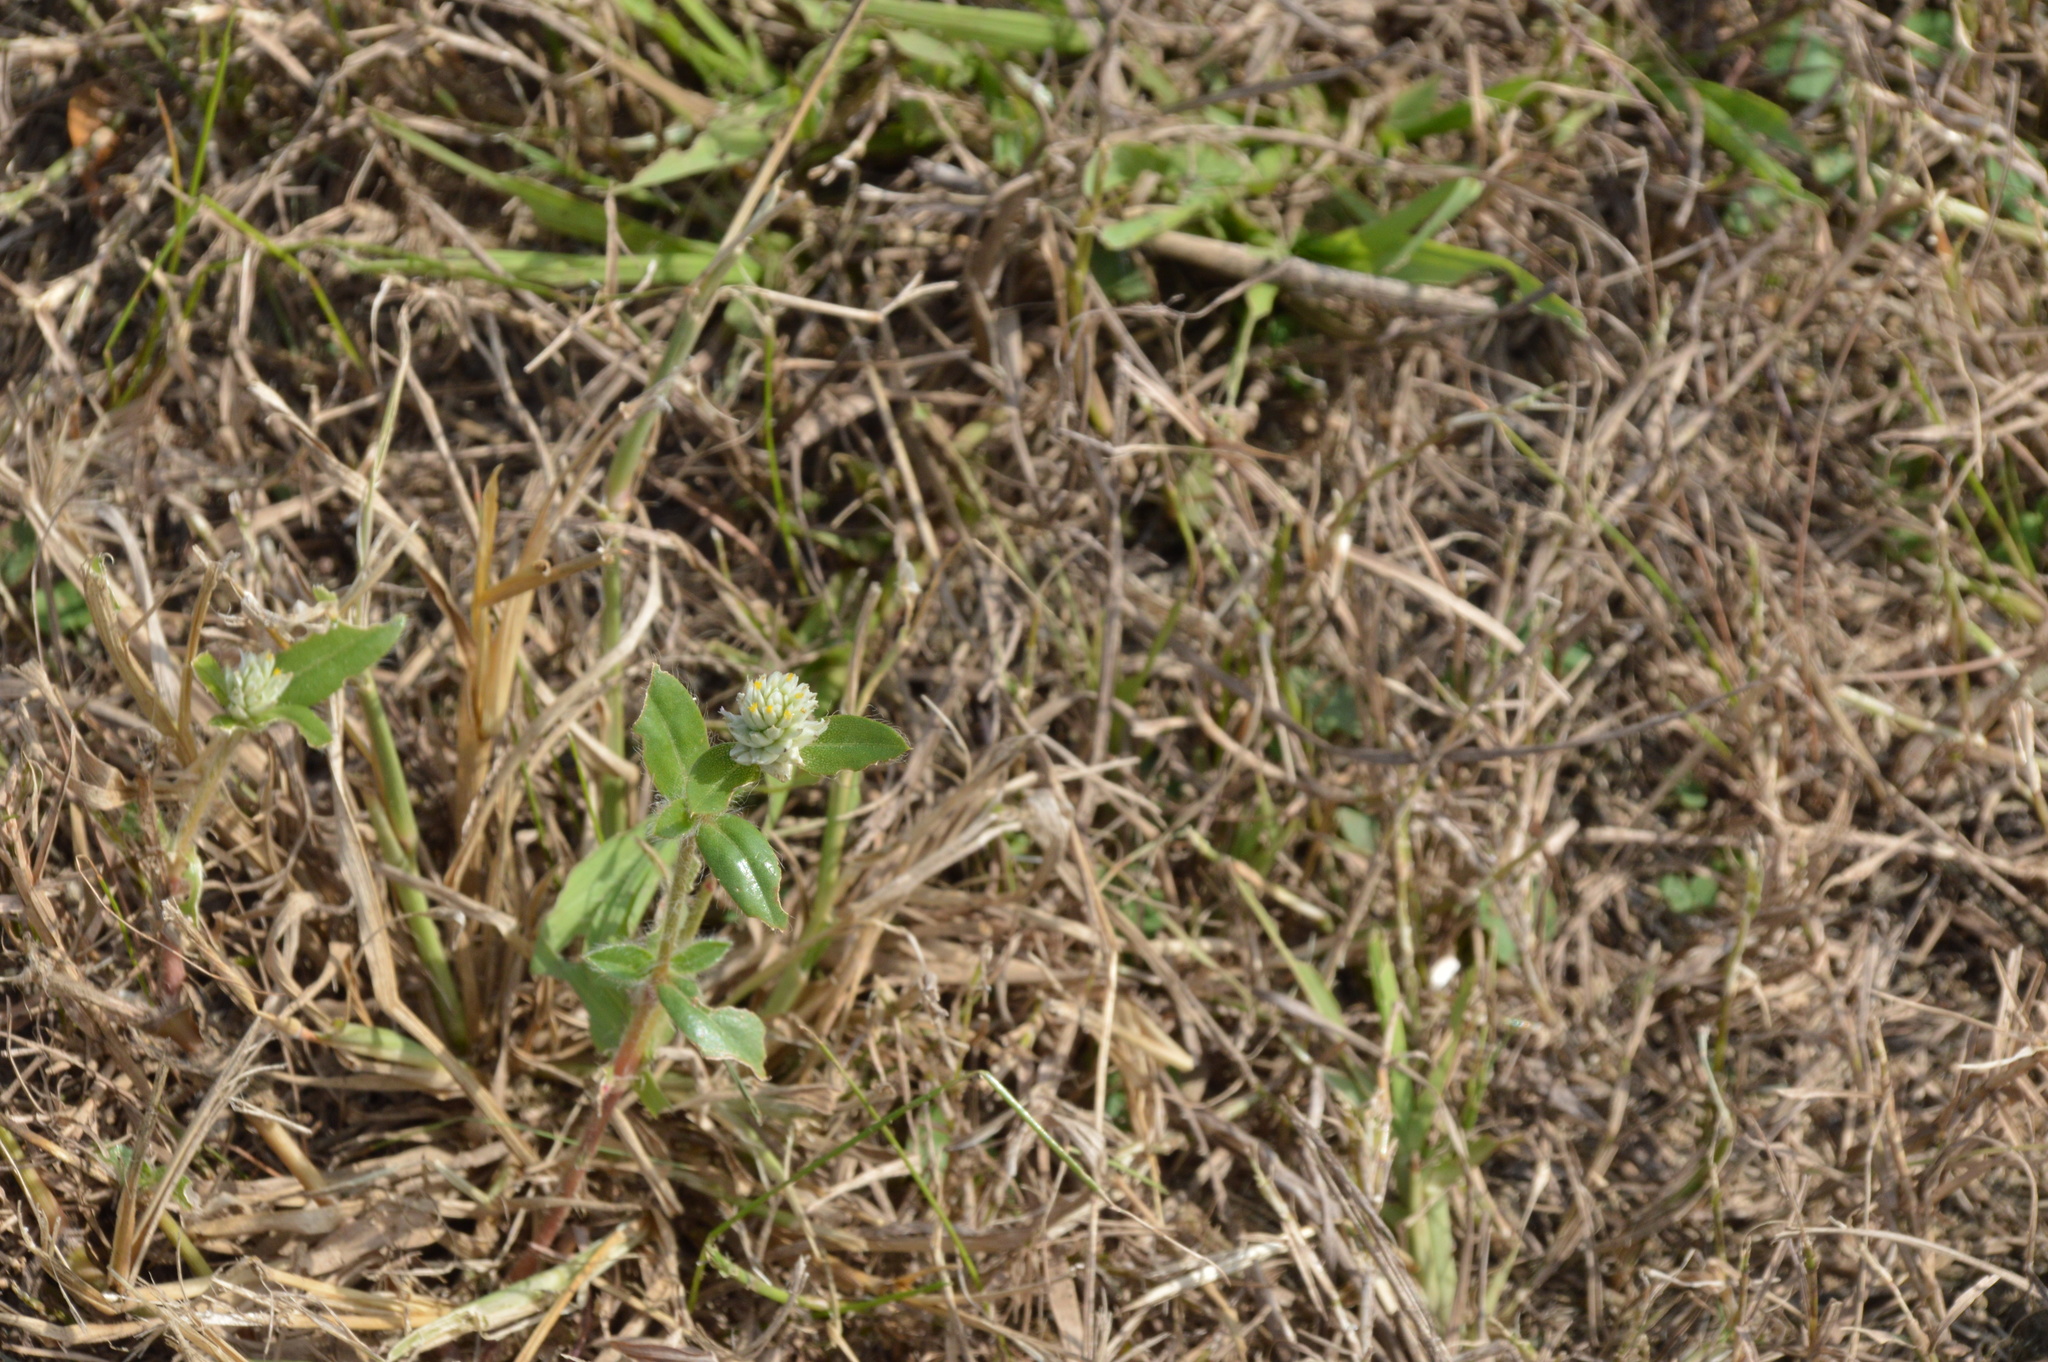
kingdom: Plantae
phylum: Tracheophyta
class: Magnoliopsida
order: Caryophyllales
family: Amaranthaceae
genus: Gomphrena
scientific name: Gomphrena serrata
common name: Arrasa con todo
